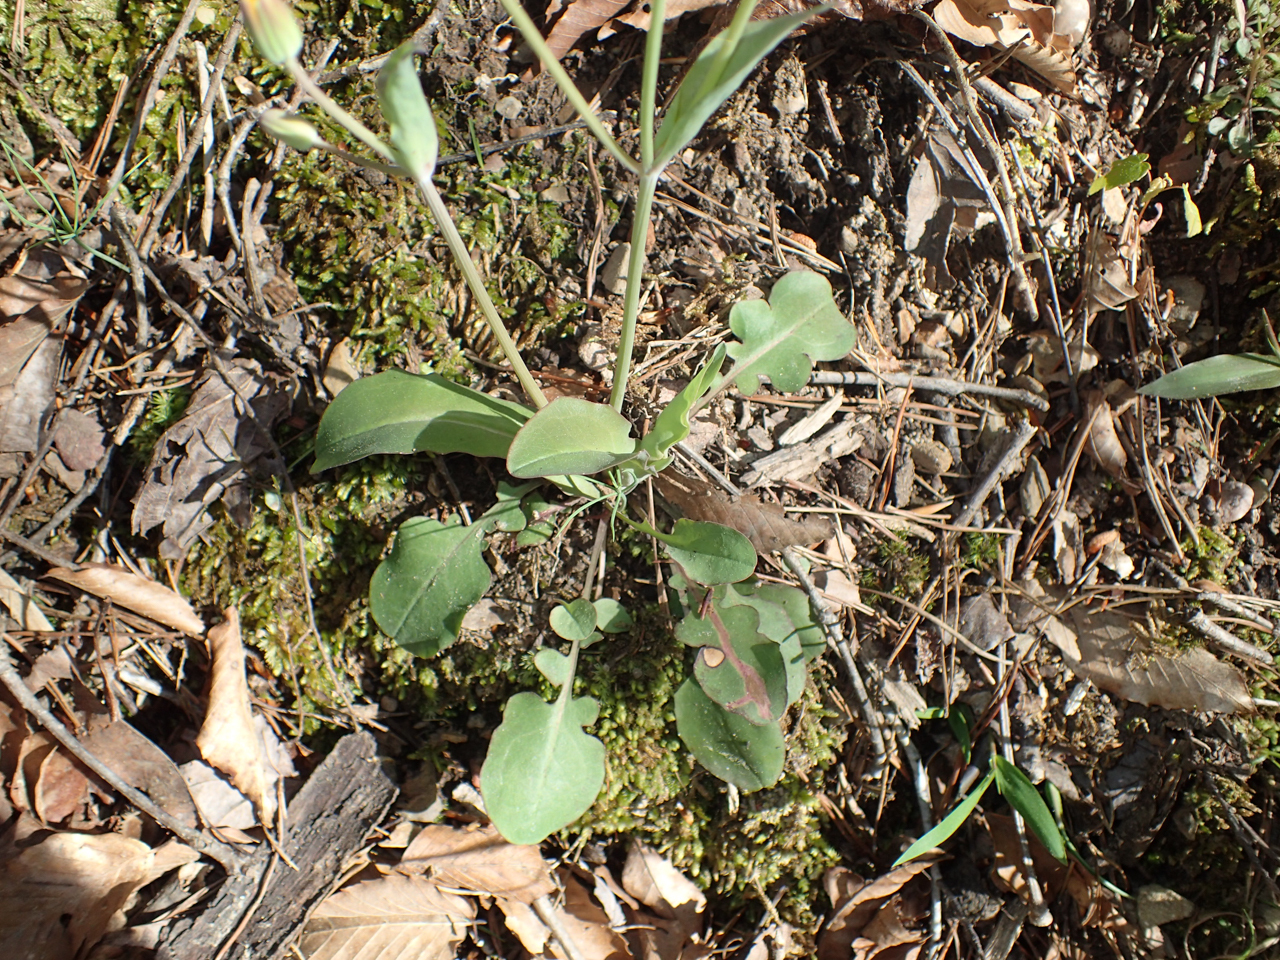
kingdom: Plantae
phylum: Tracheophyta
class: Magnoliopsida
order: Asterales
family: Asteraceae
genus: Krigia
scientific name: Krigia biflora
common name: Orange dwarf-dandelion
